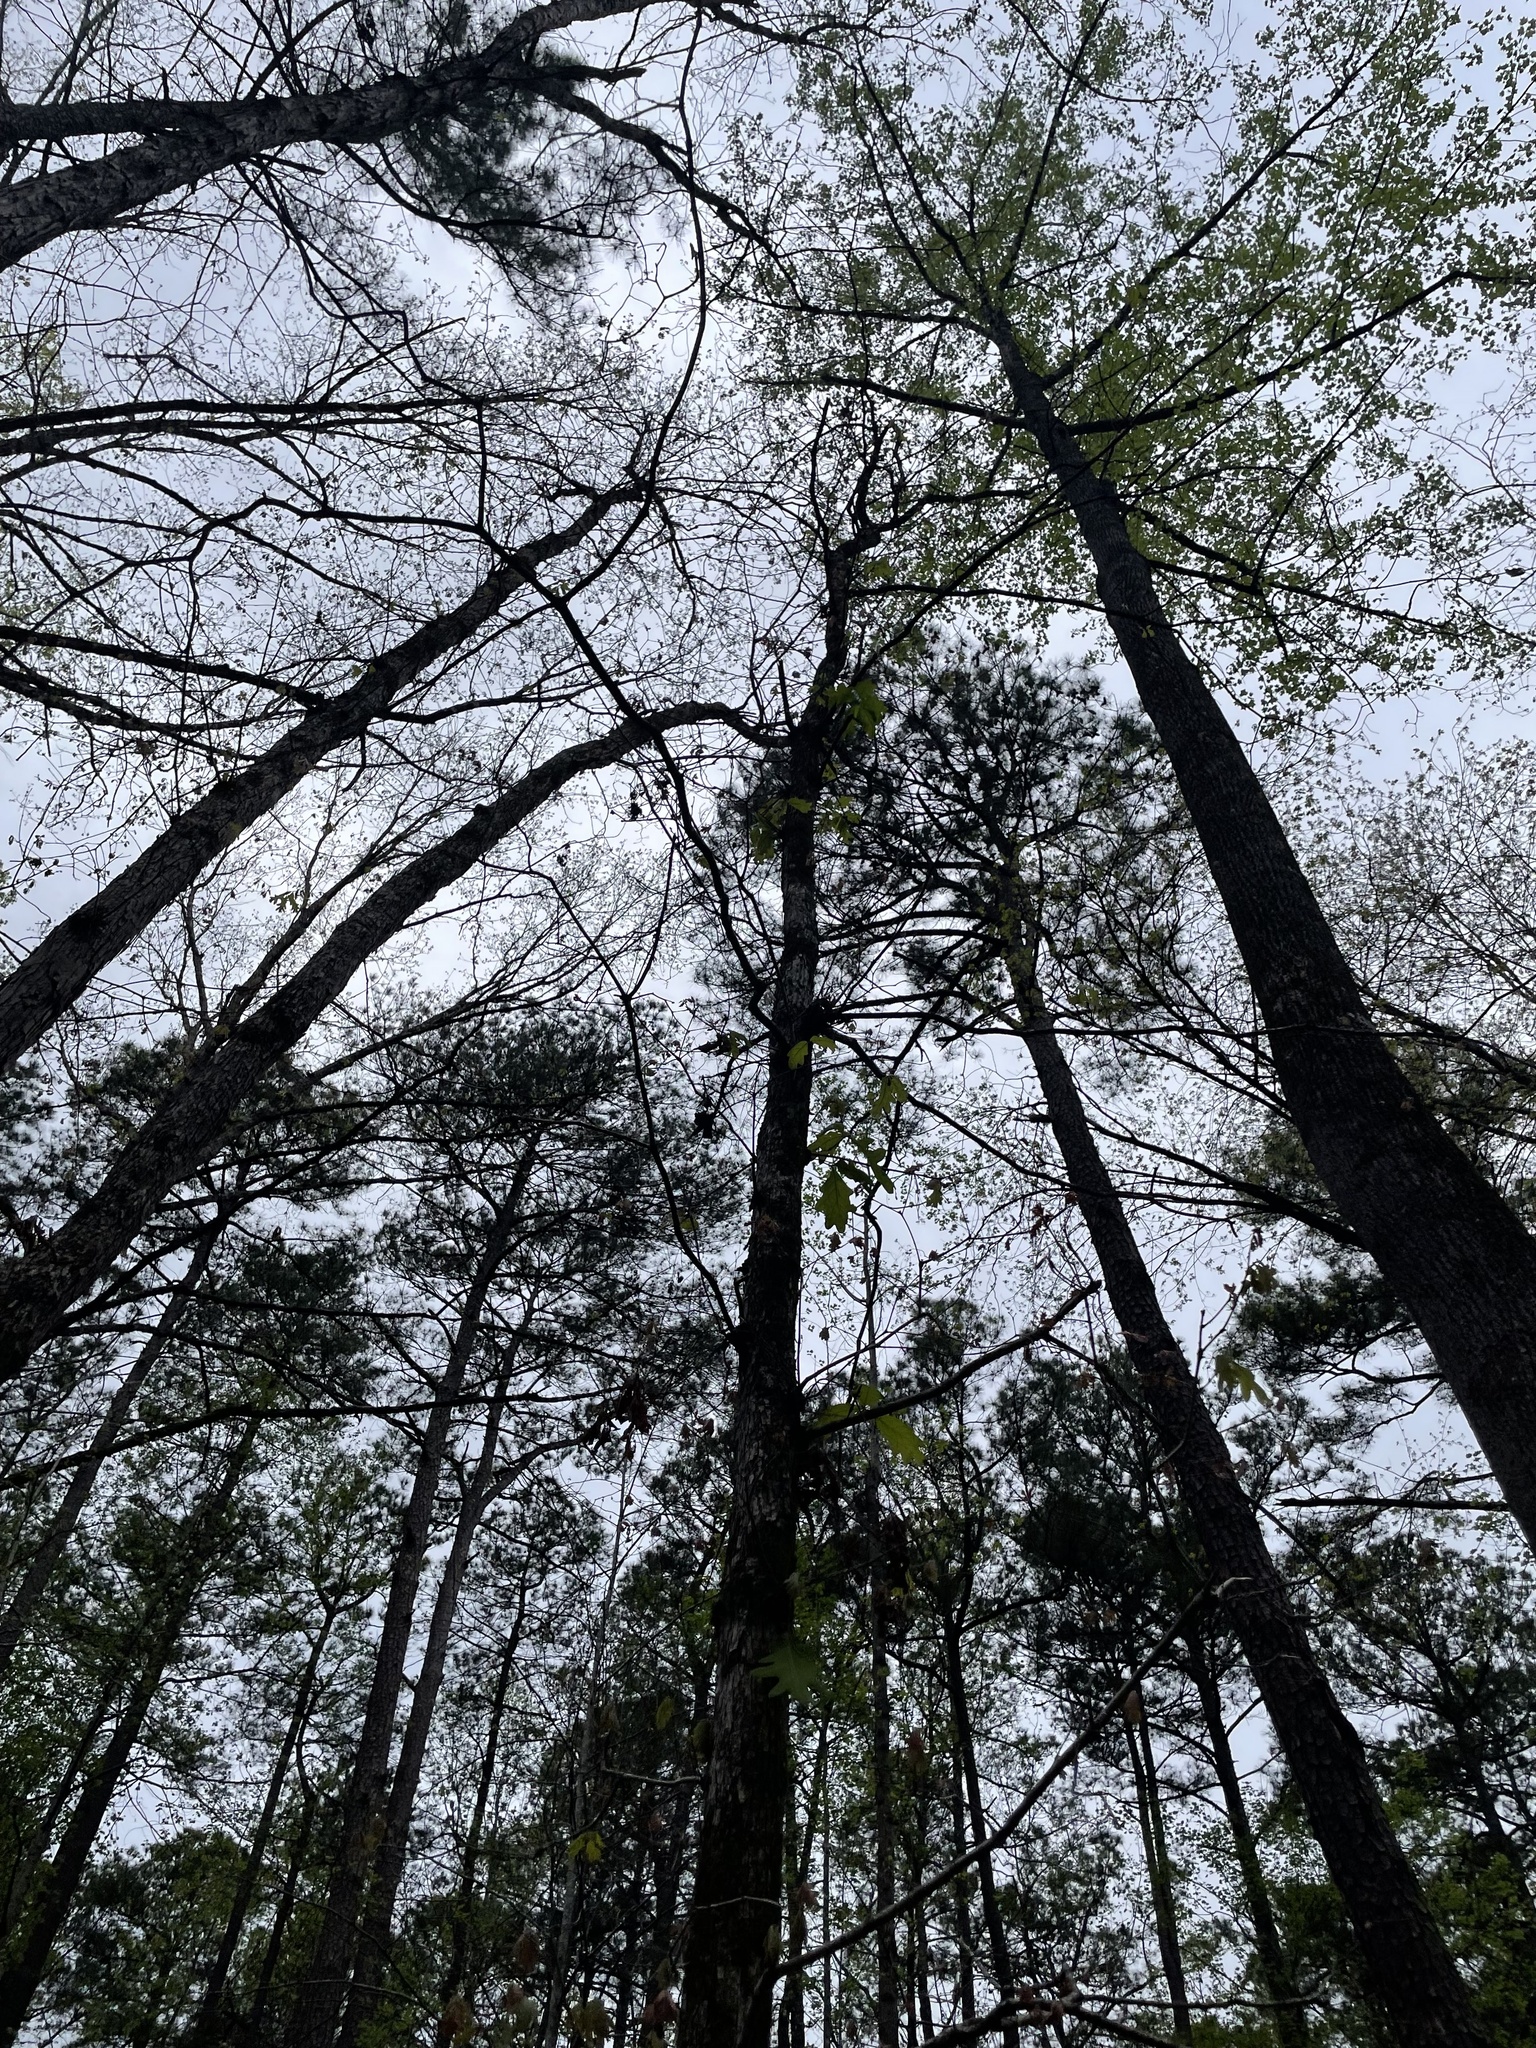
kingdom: Plantae
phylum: Tracheophyta
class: Magnoliopsida
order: Fagales
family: Fagaceae
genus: Quercus
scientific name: Quercus alba
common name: White oak
